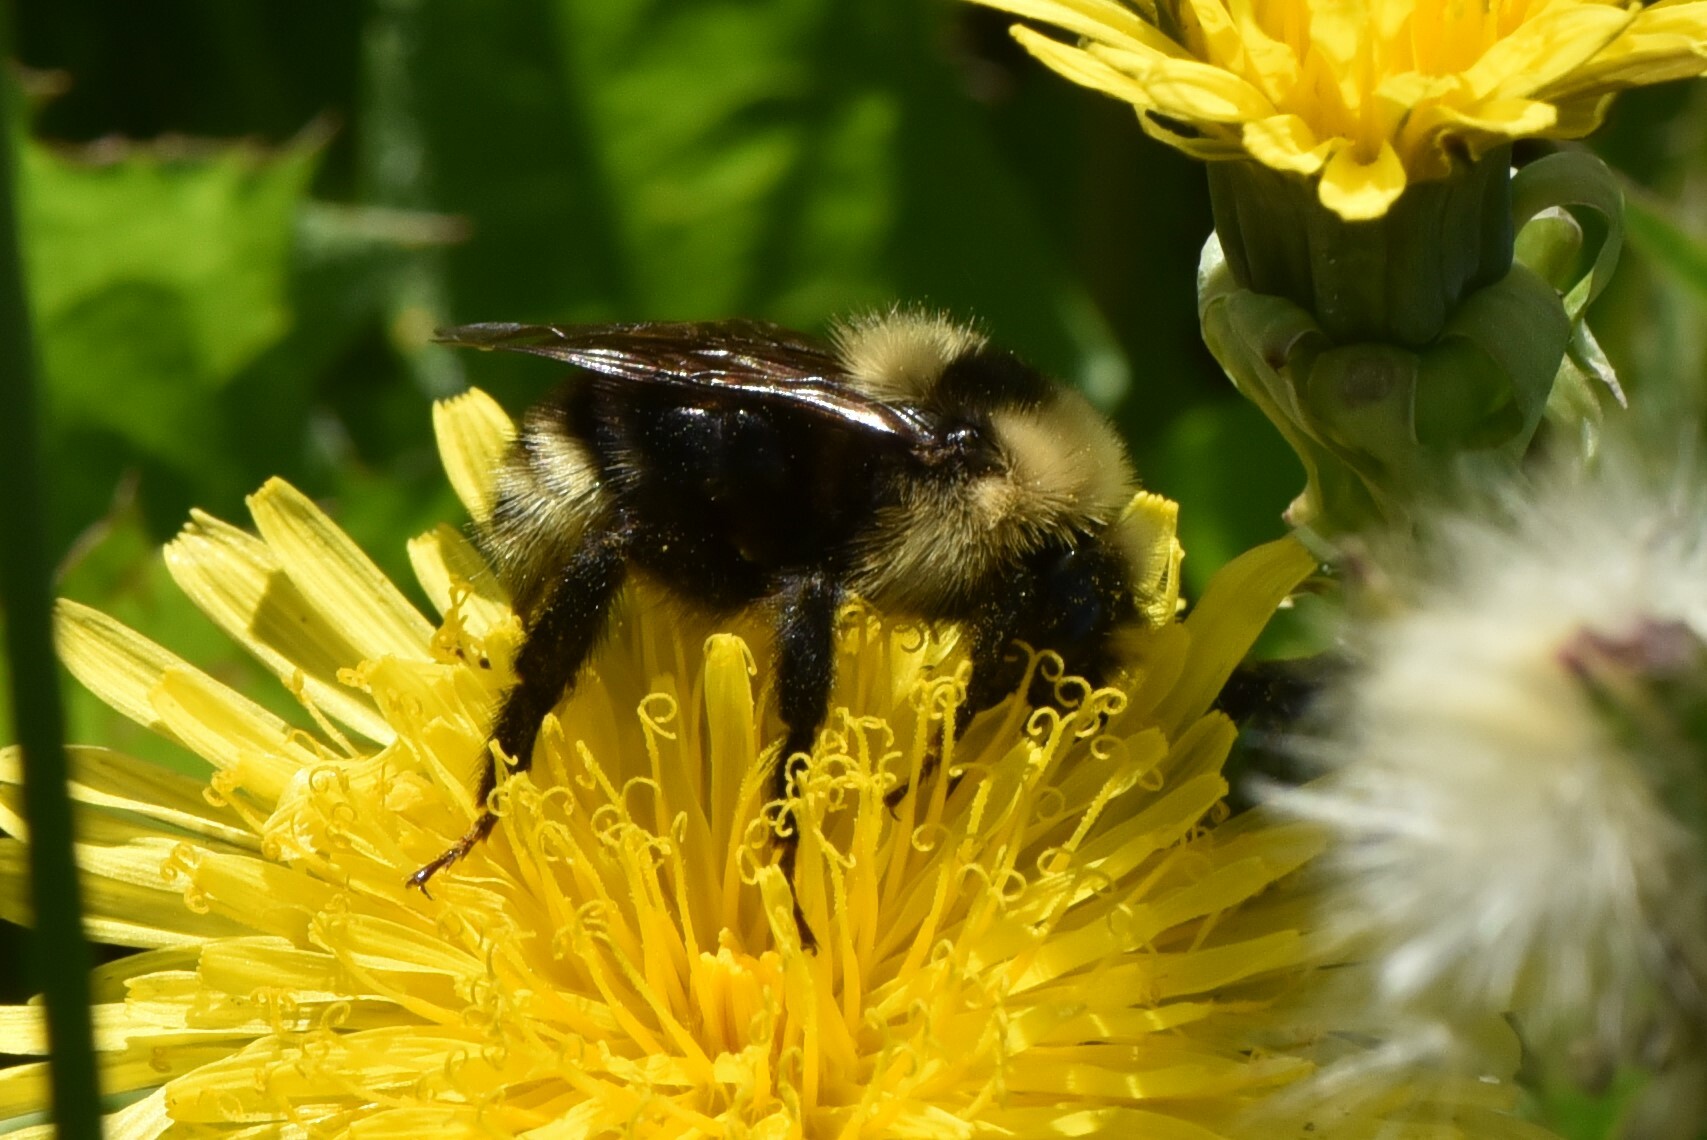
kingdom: Animalia
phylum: Arthropoda
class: Insecta
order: Hymenoptera
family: Apidae
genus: Bombus
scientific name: Bombus insularis
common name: Indiscriminate cuckoo bumble bee
